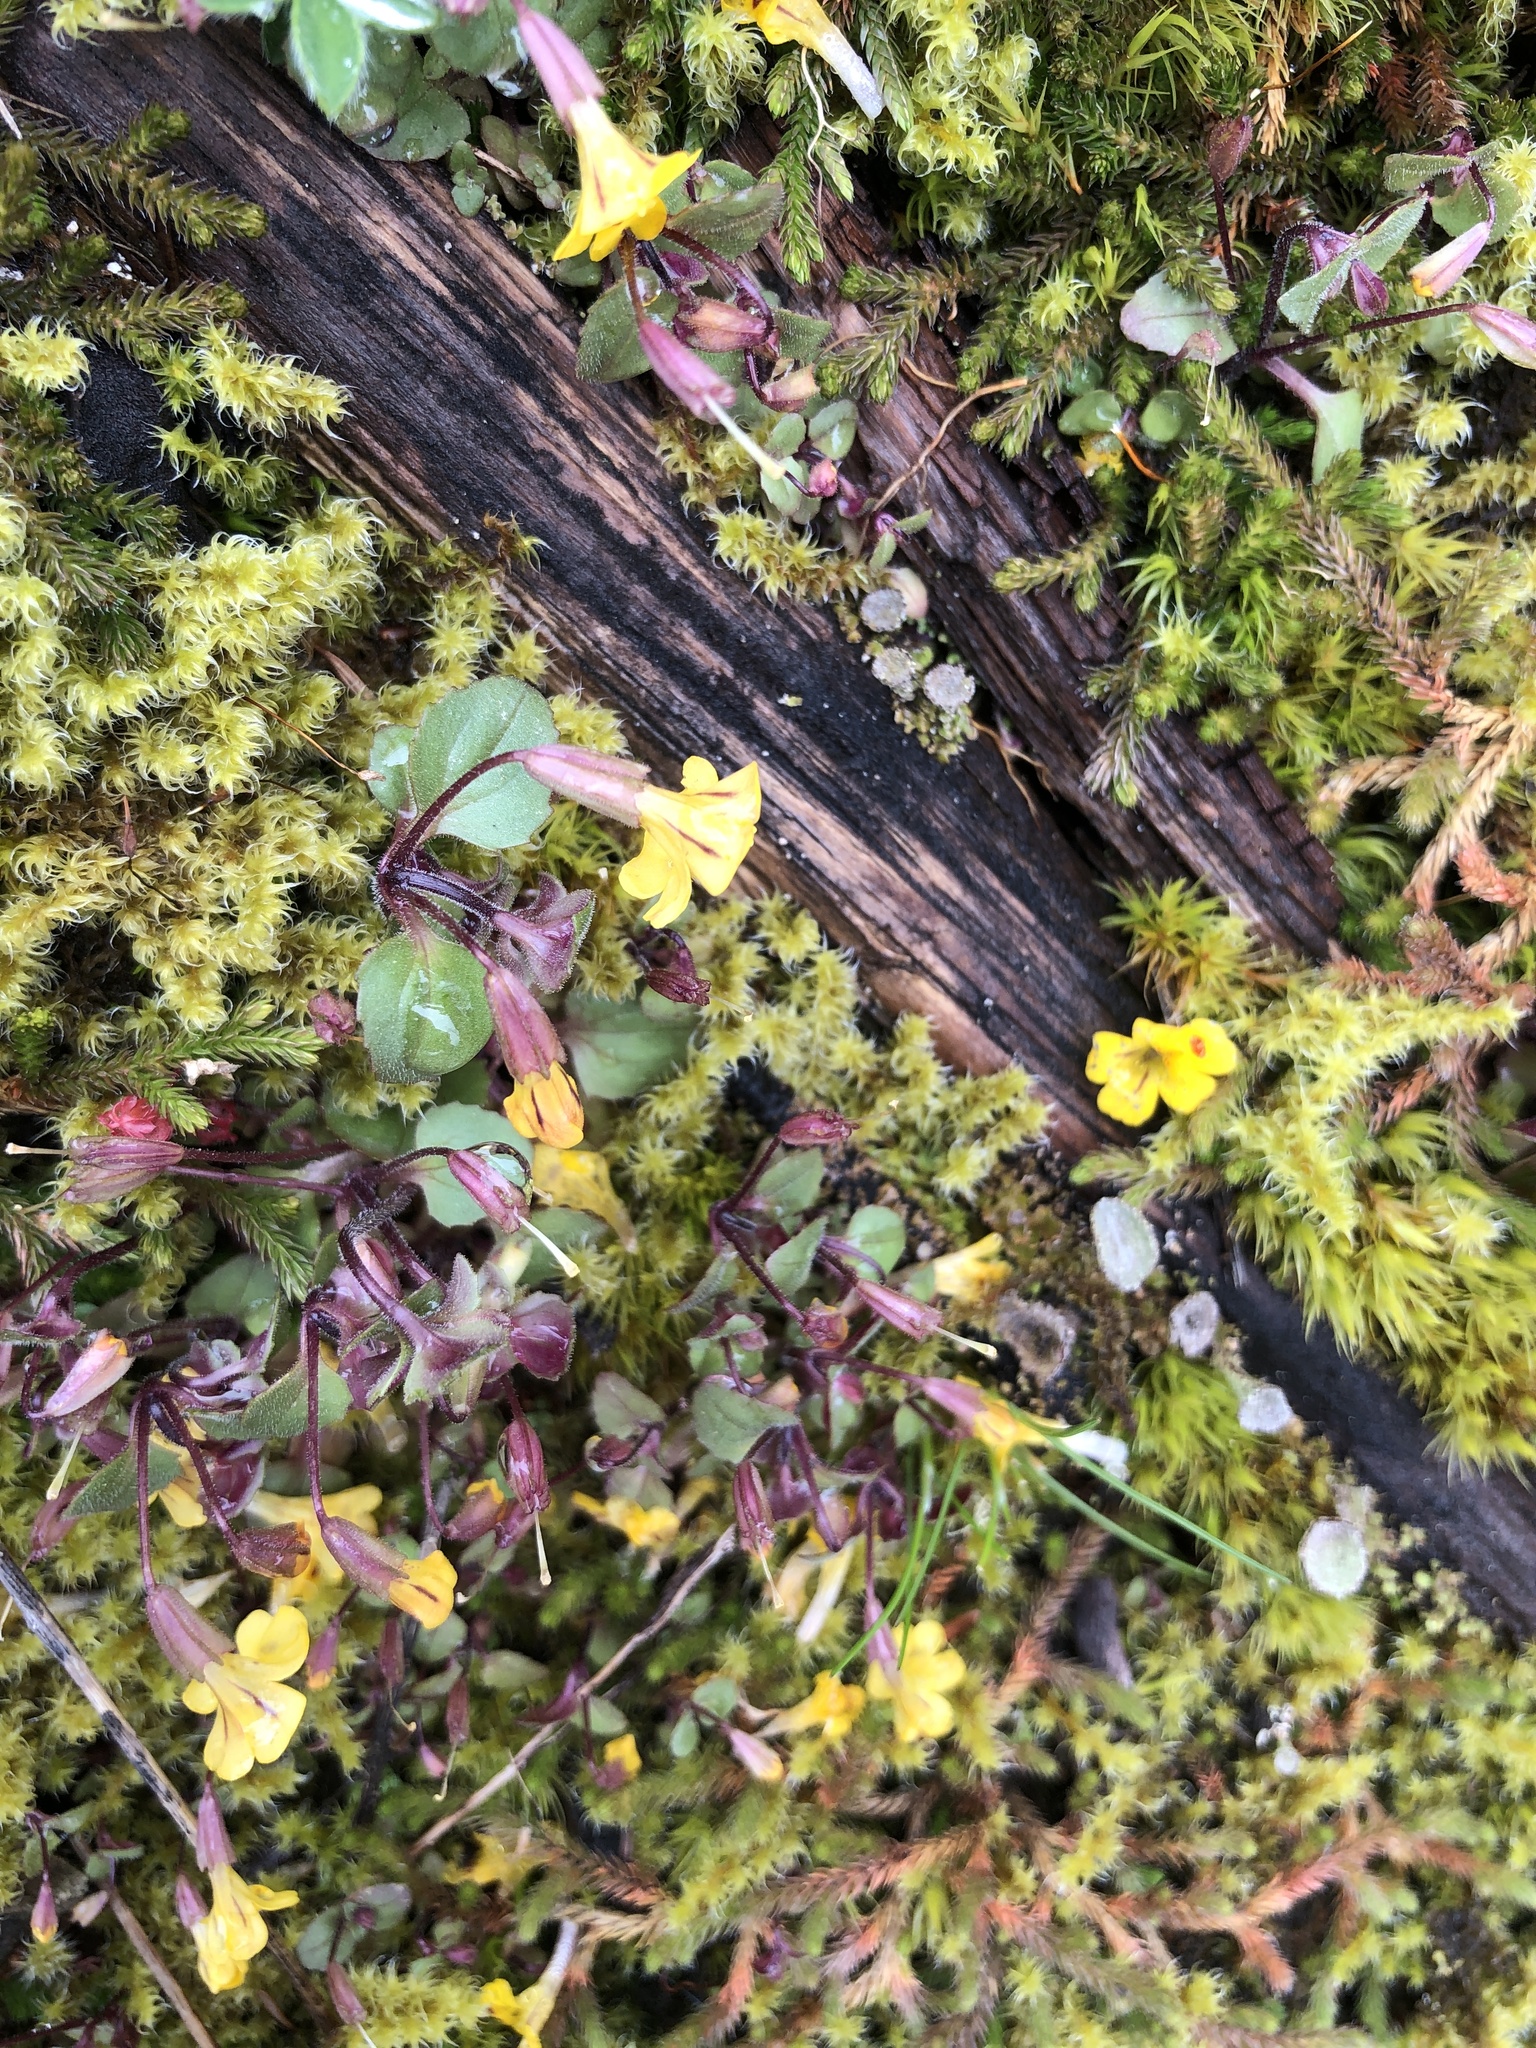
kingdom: Plantae
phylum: Tracheophyta
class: Magnoliopsida
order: Lamiales
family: Phrymaceae
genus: Erythranthe
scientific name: Erythranthe alsinoides
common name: Chickweed monkeyflower
